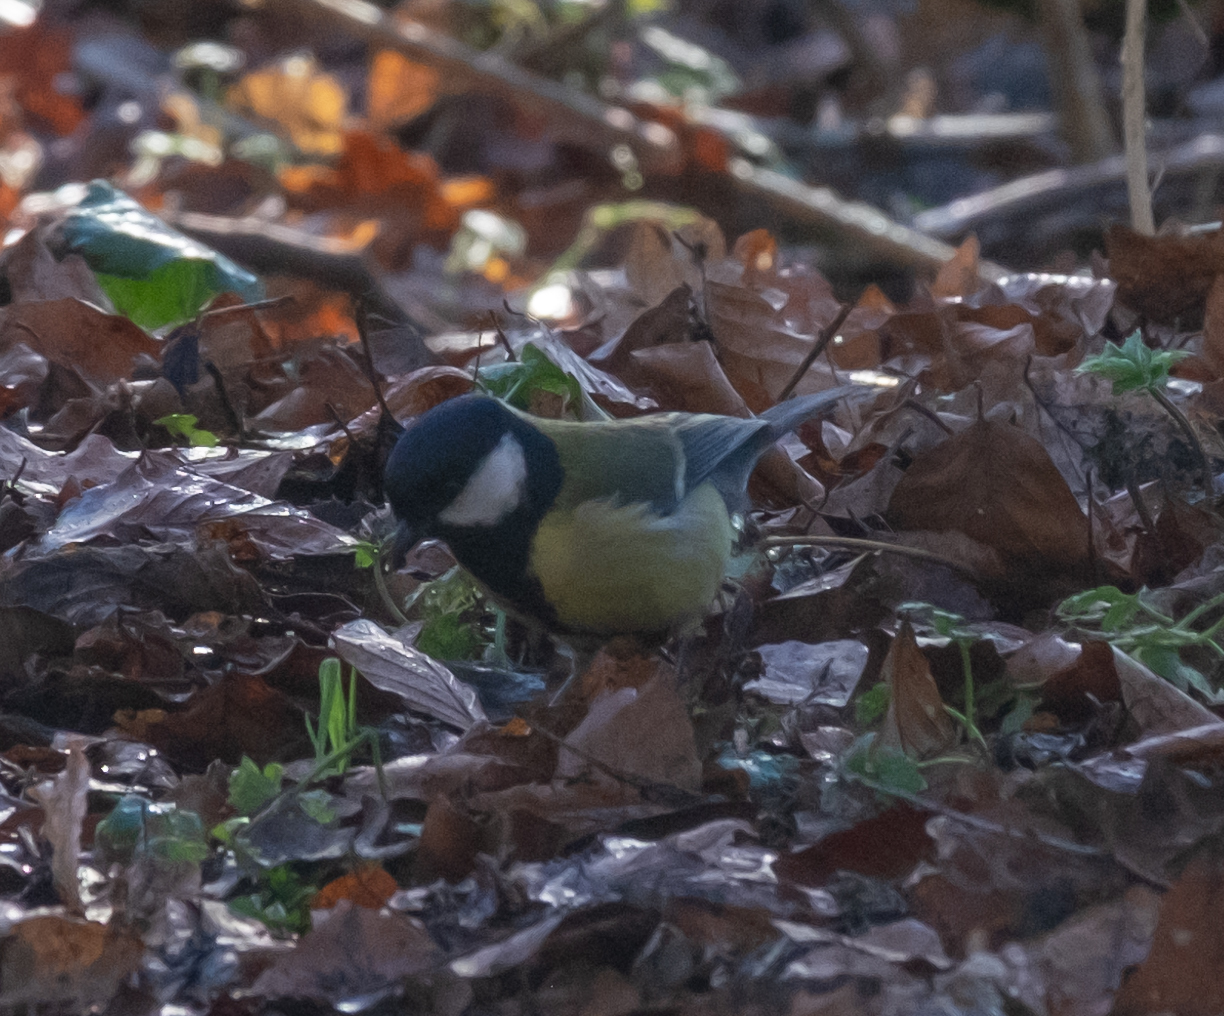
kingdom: Animalia
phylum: Chordata
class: Aves
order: Passeriformes
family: Paridae
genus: Parus
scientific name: Parus major
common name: Great tit
